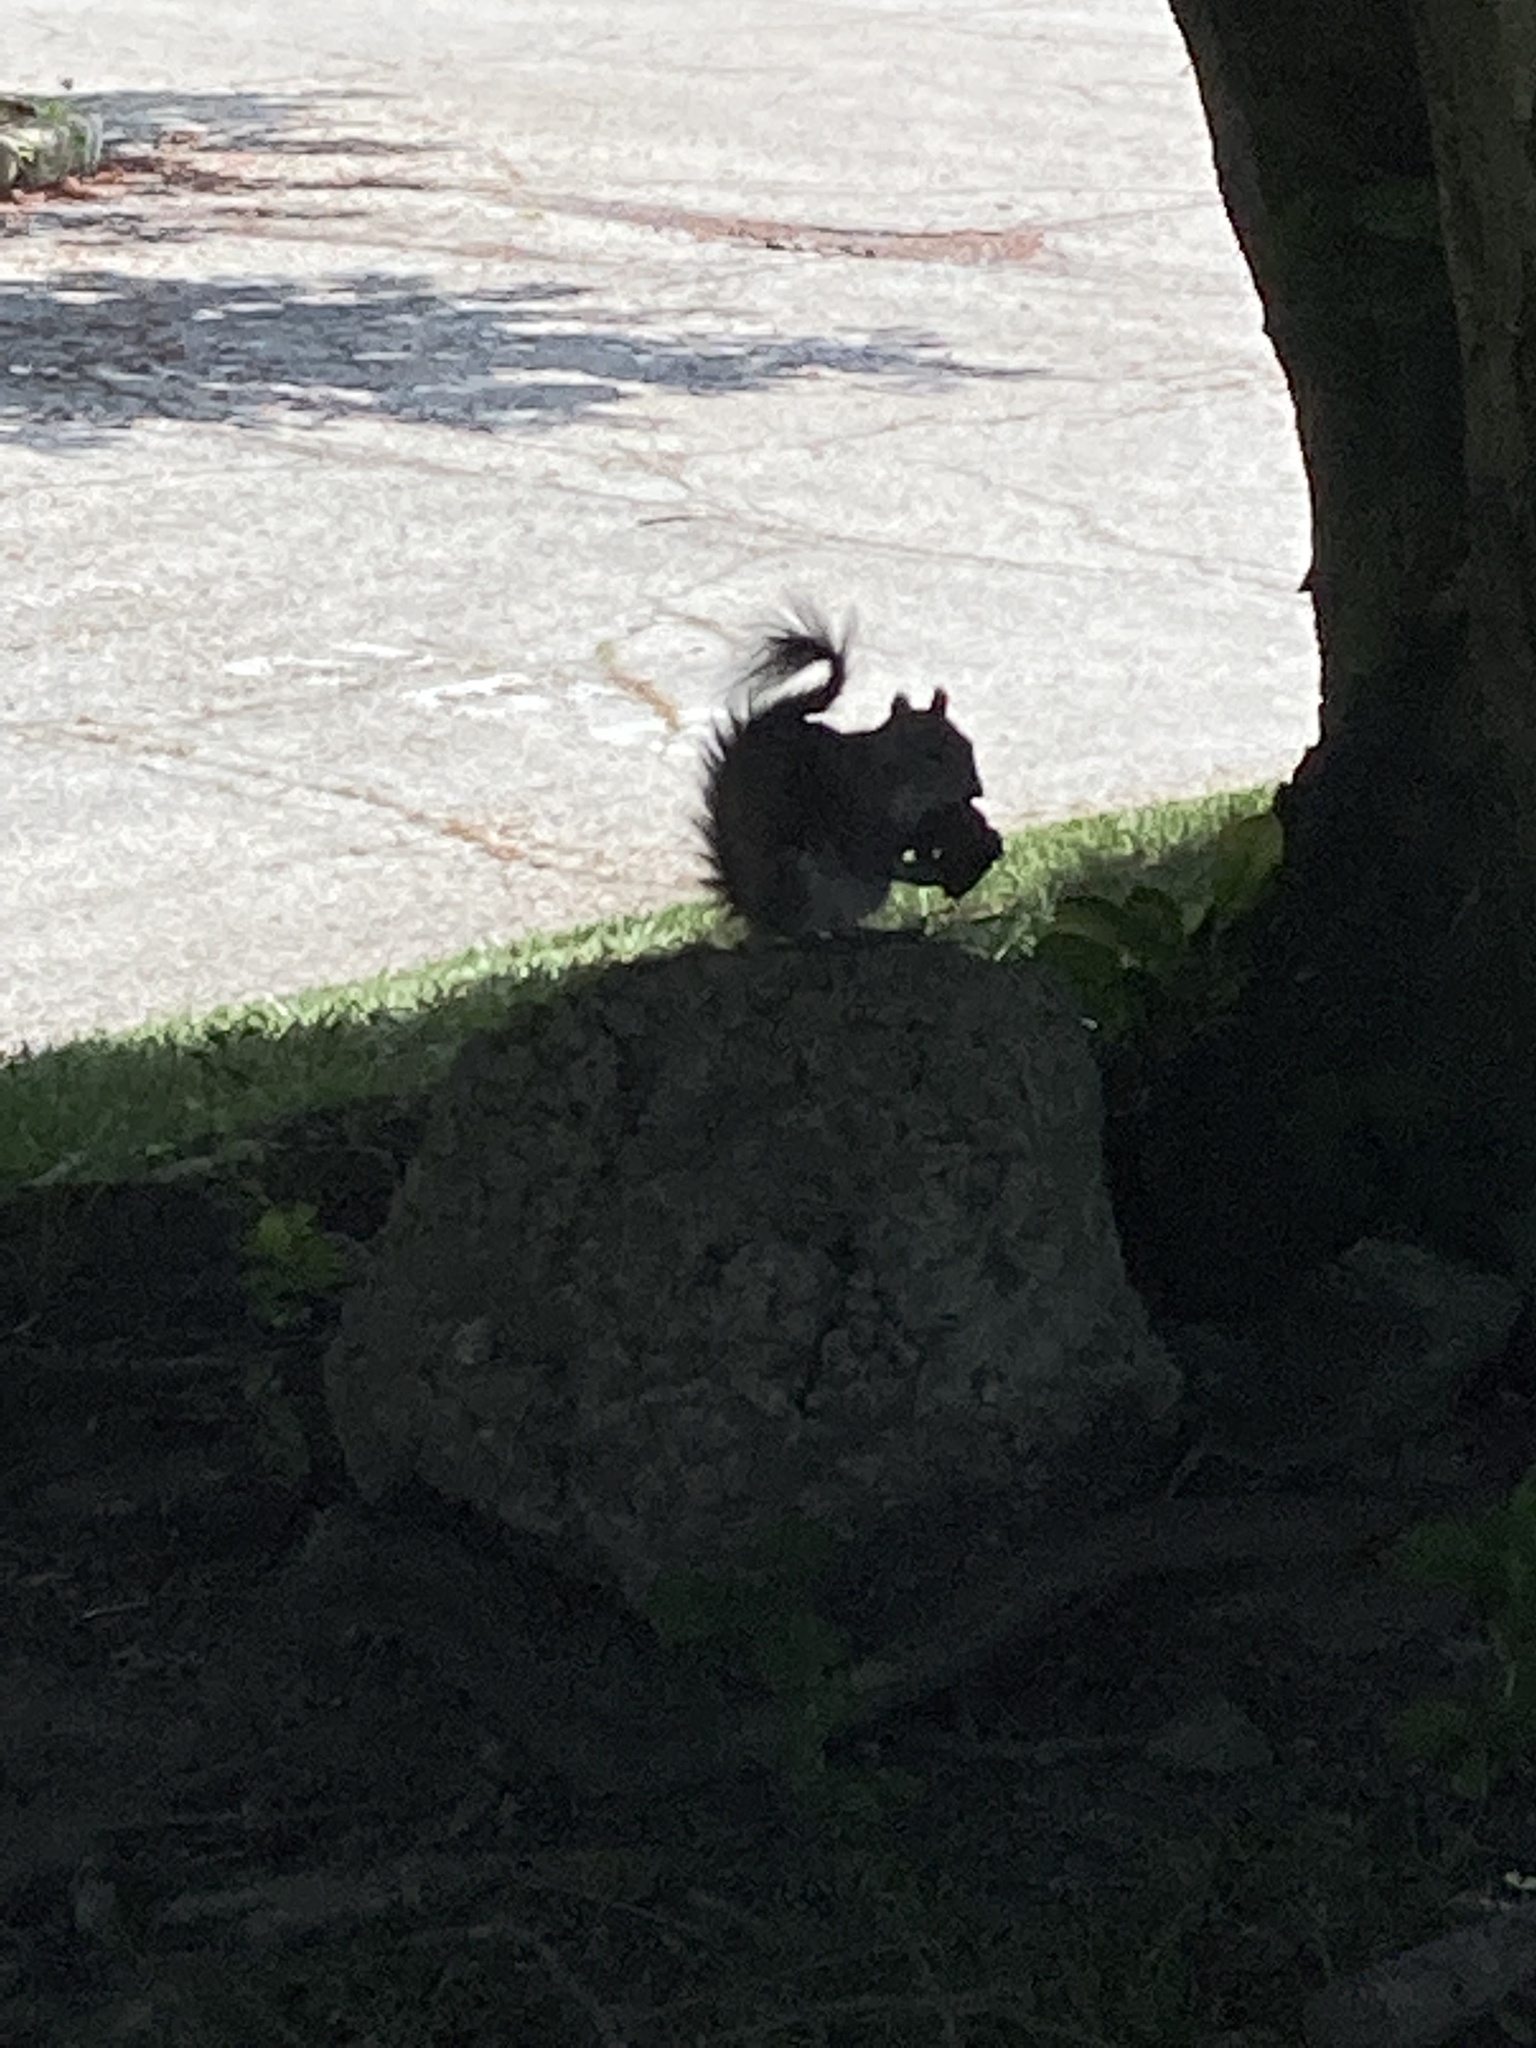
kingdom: Animalia
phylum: Chordata
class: Mammalia
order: Rodentia
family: Sciuridae
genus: Sciurus
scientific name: Sciurus carolinensis
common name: Eastern gray squirrel
